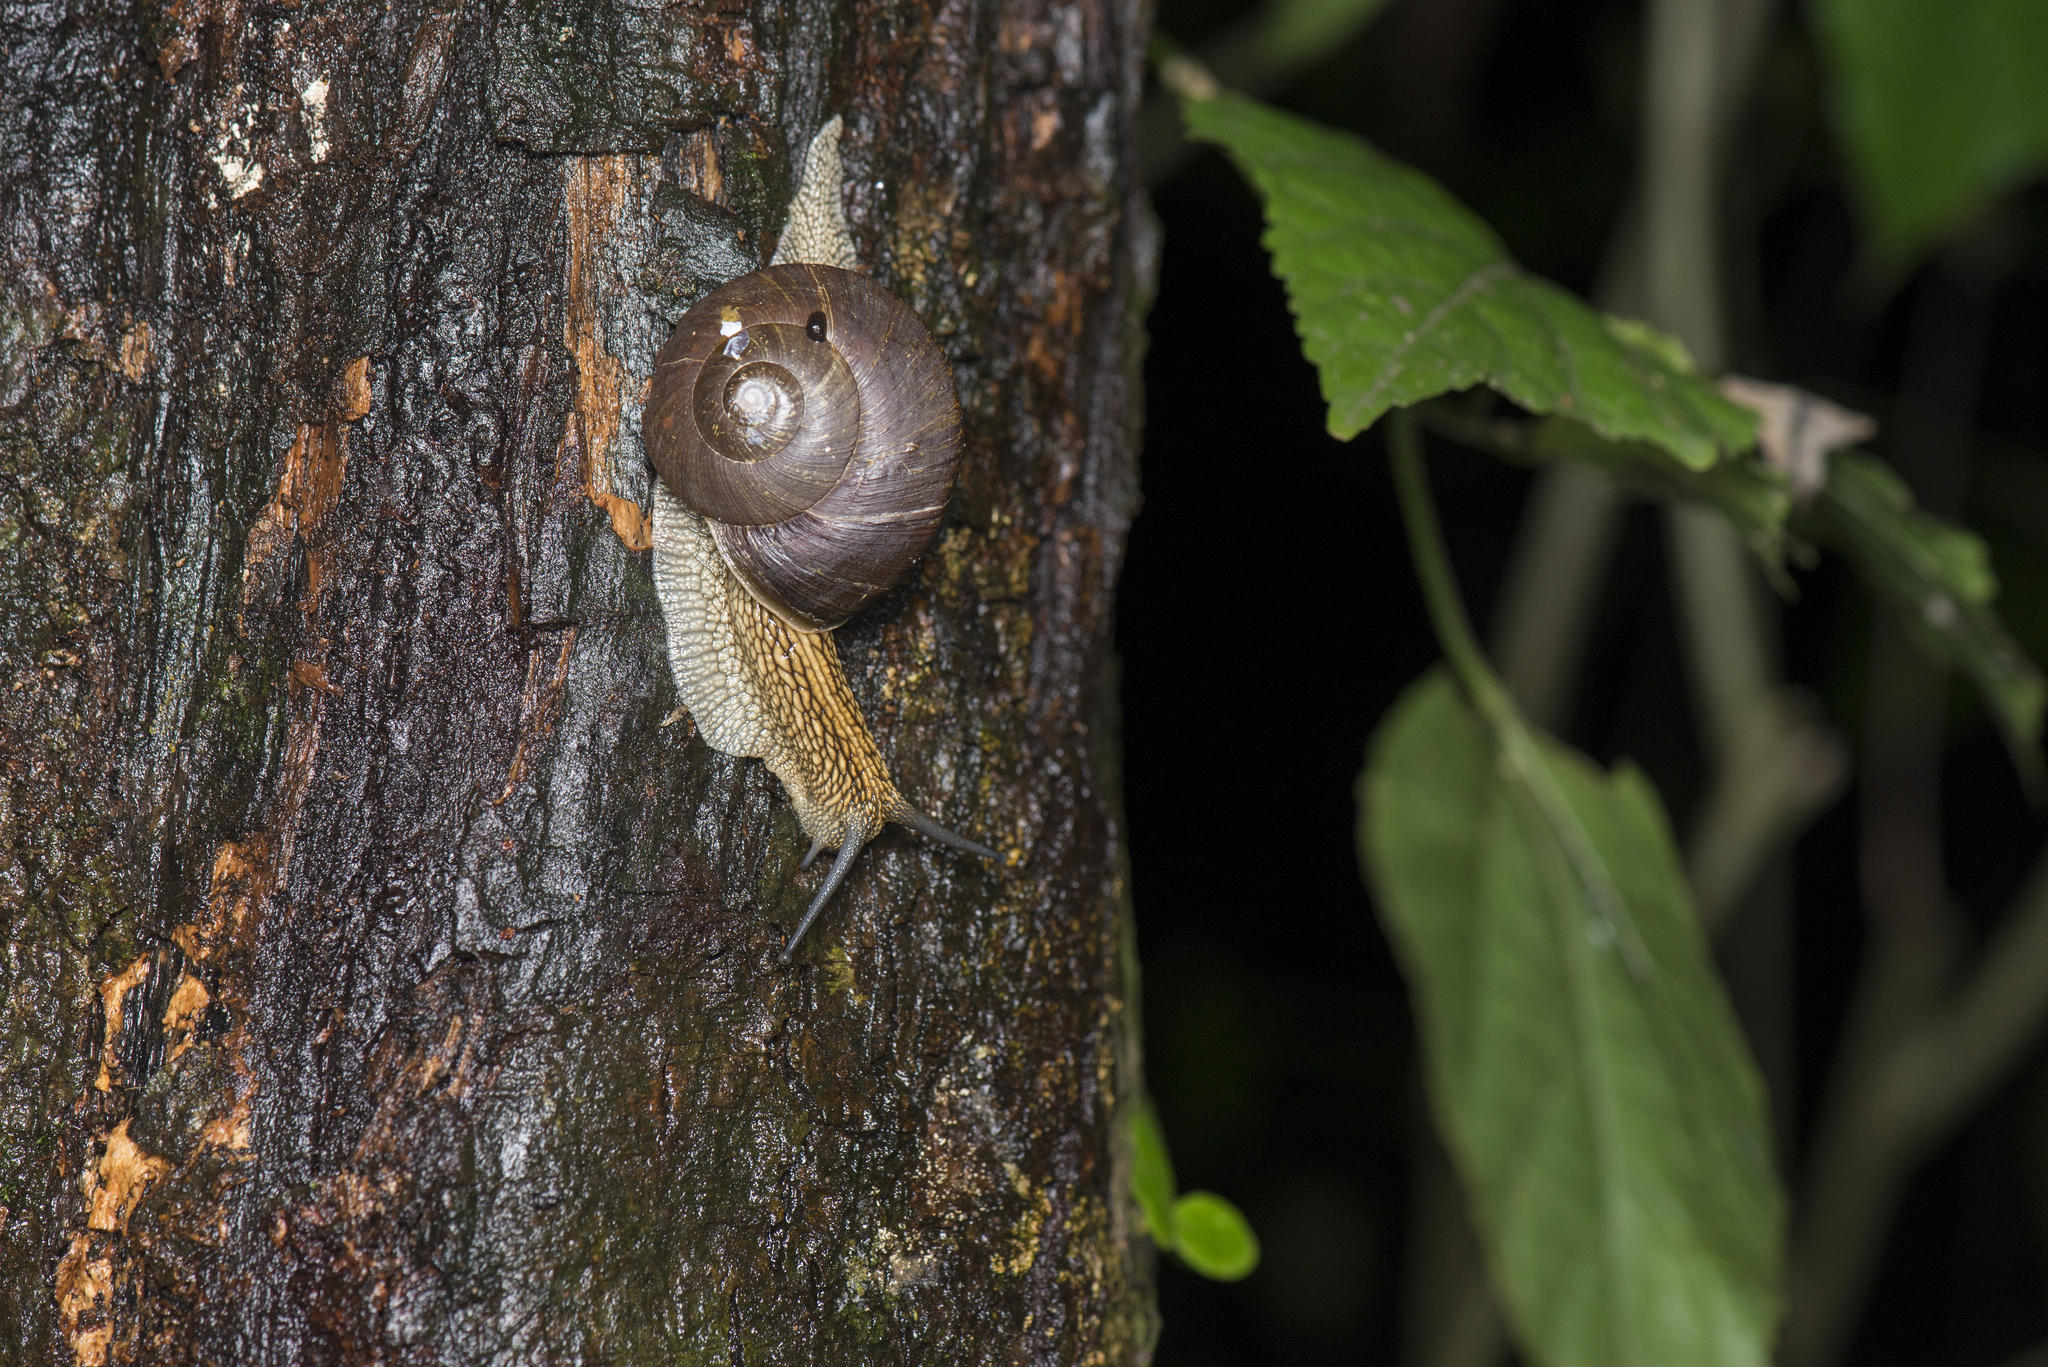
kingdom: Animalia
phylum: Mollusca
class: Gastropoda
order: Stylommatophora
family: Camaenidae
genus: Nesiohelix
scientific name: Nesiohelix swinhoei
